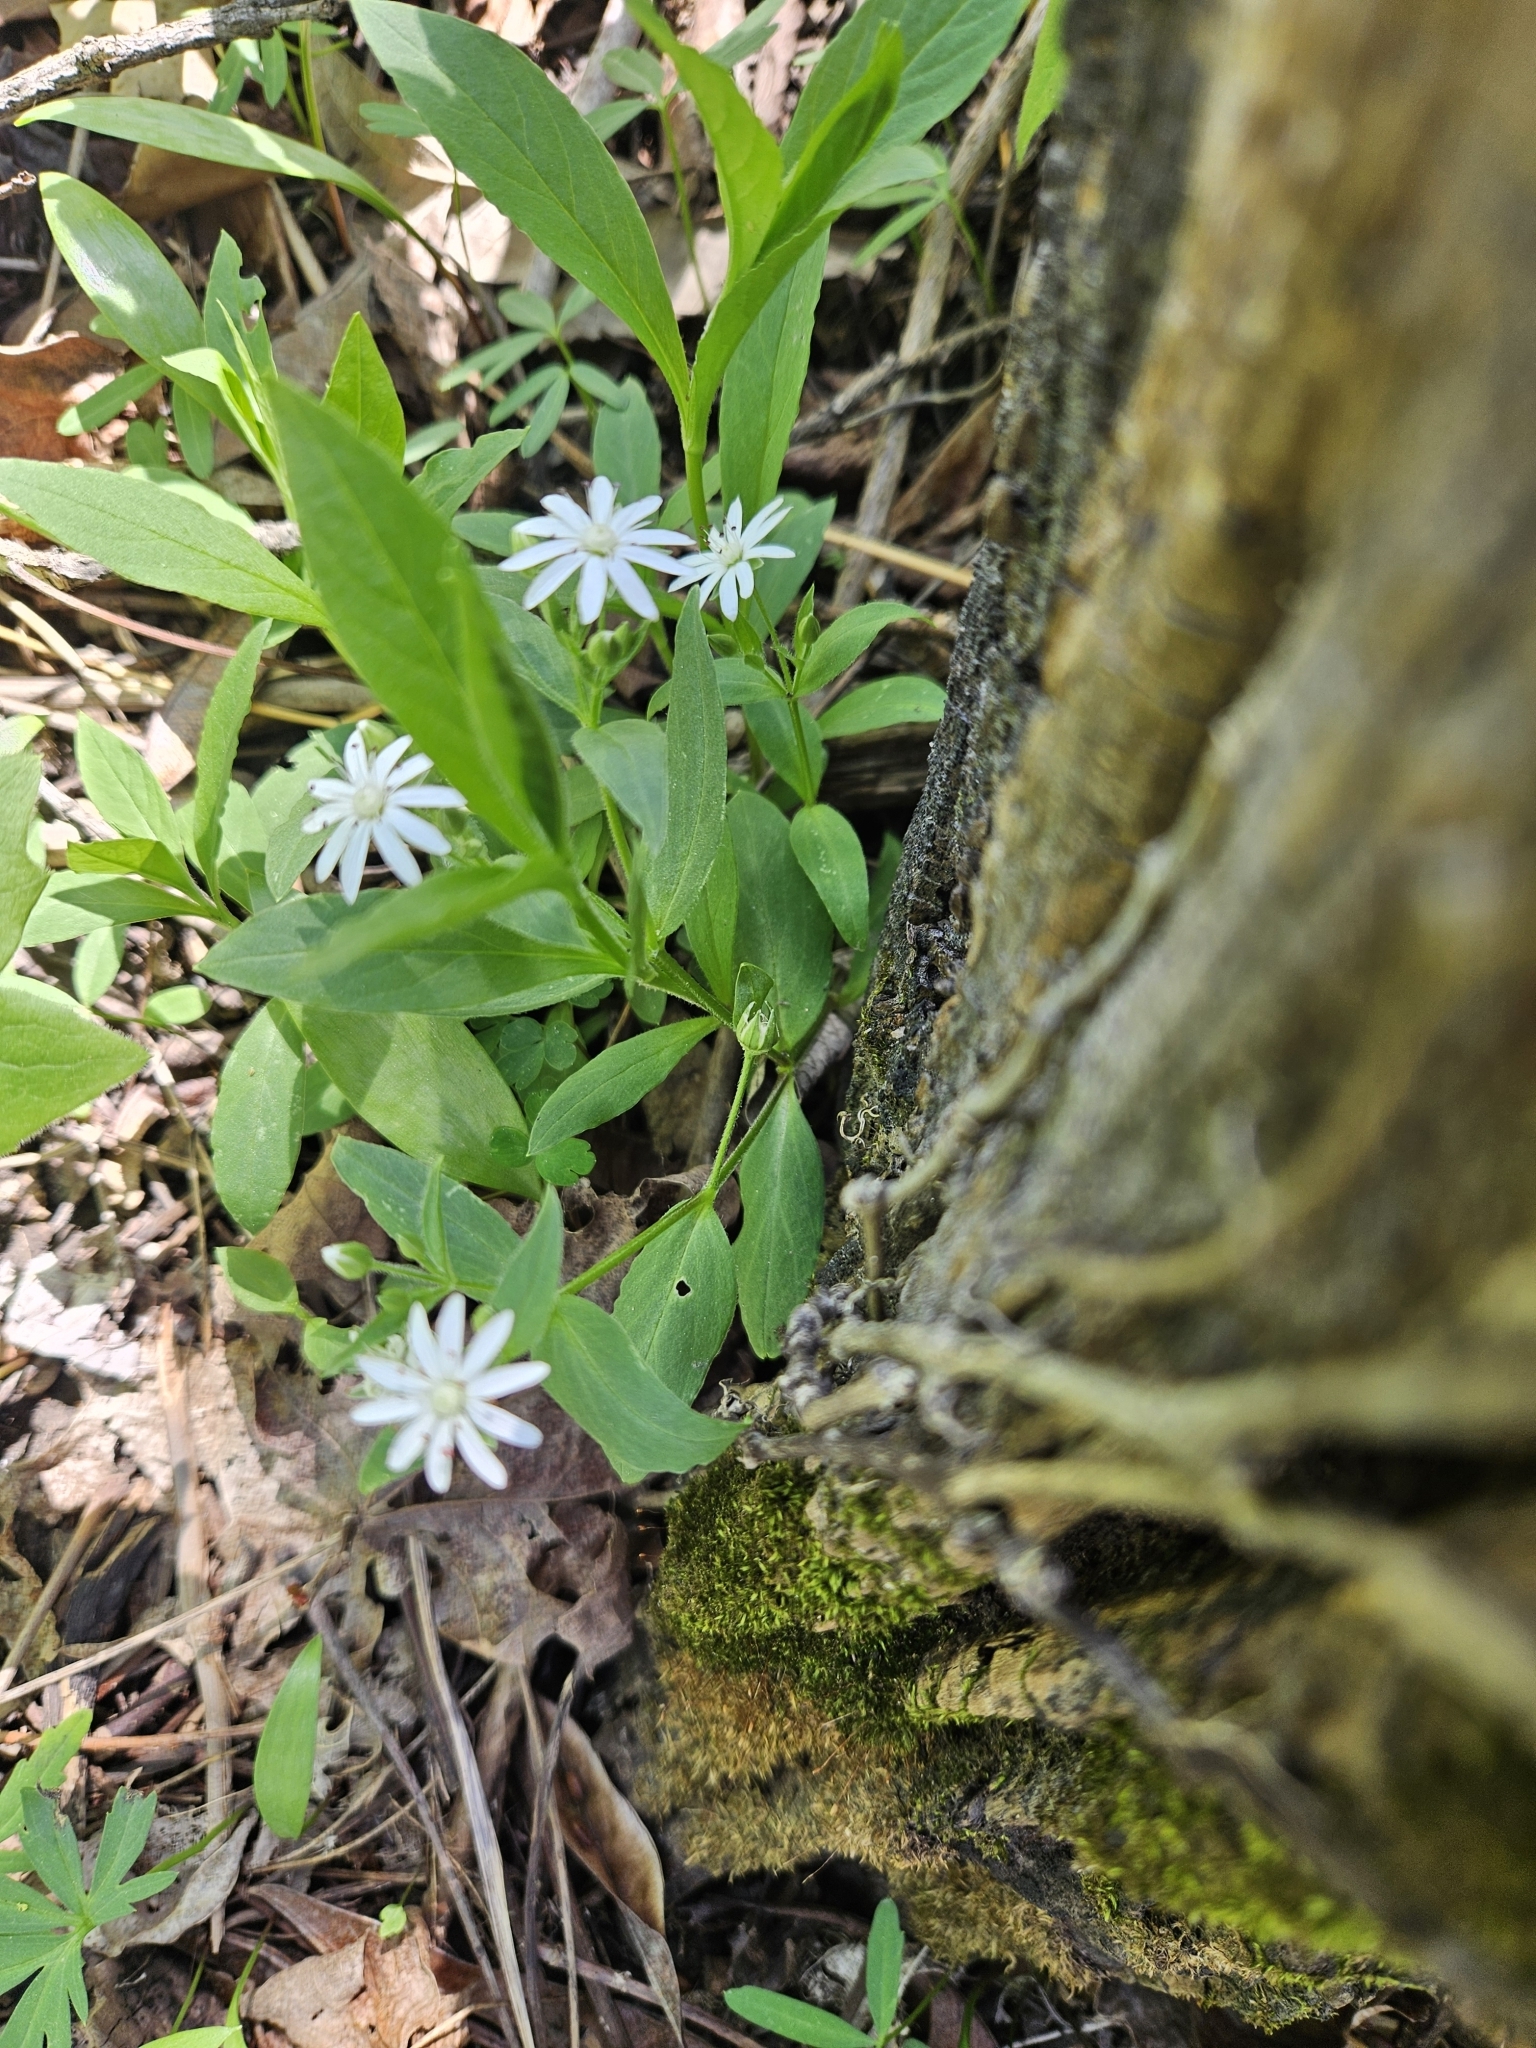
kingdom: Plantae
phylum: Tracheophyta
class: Magnoliopsida
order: Caryophyllales
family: Caryophyllaceae
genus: Stellaria
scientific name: Stellaria pubera
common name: Star chickweed
